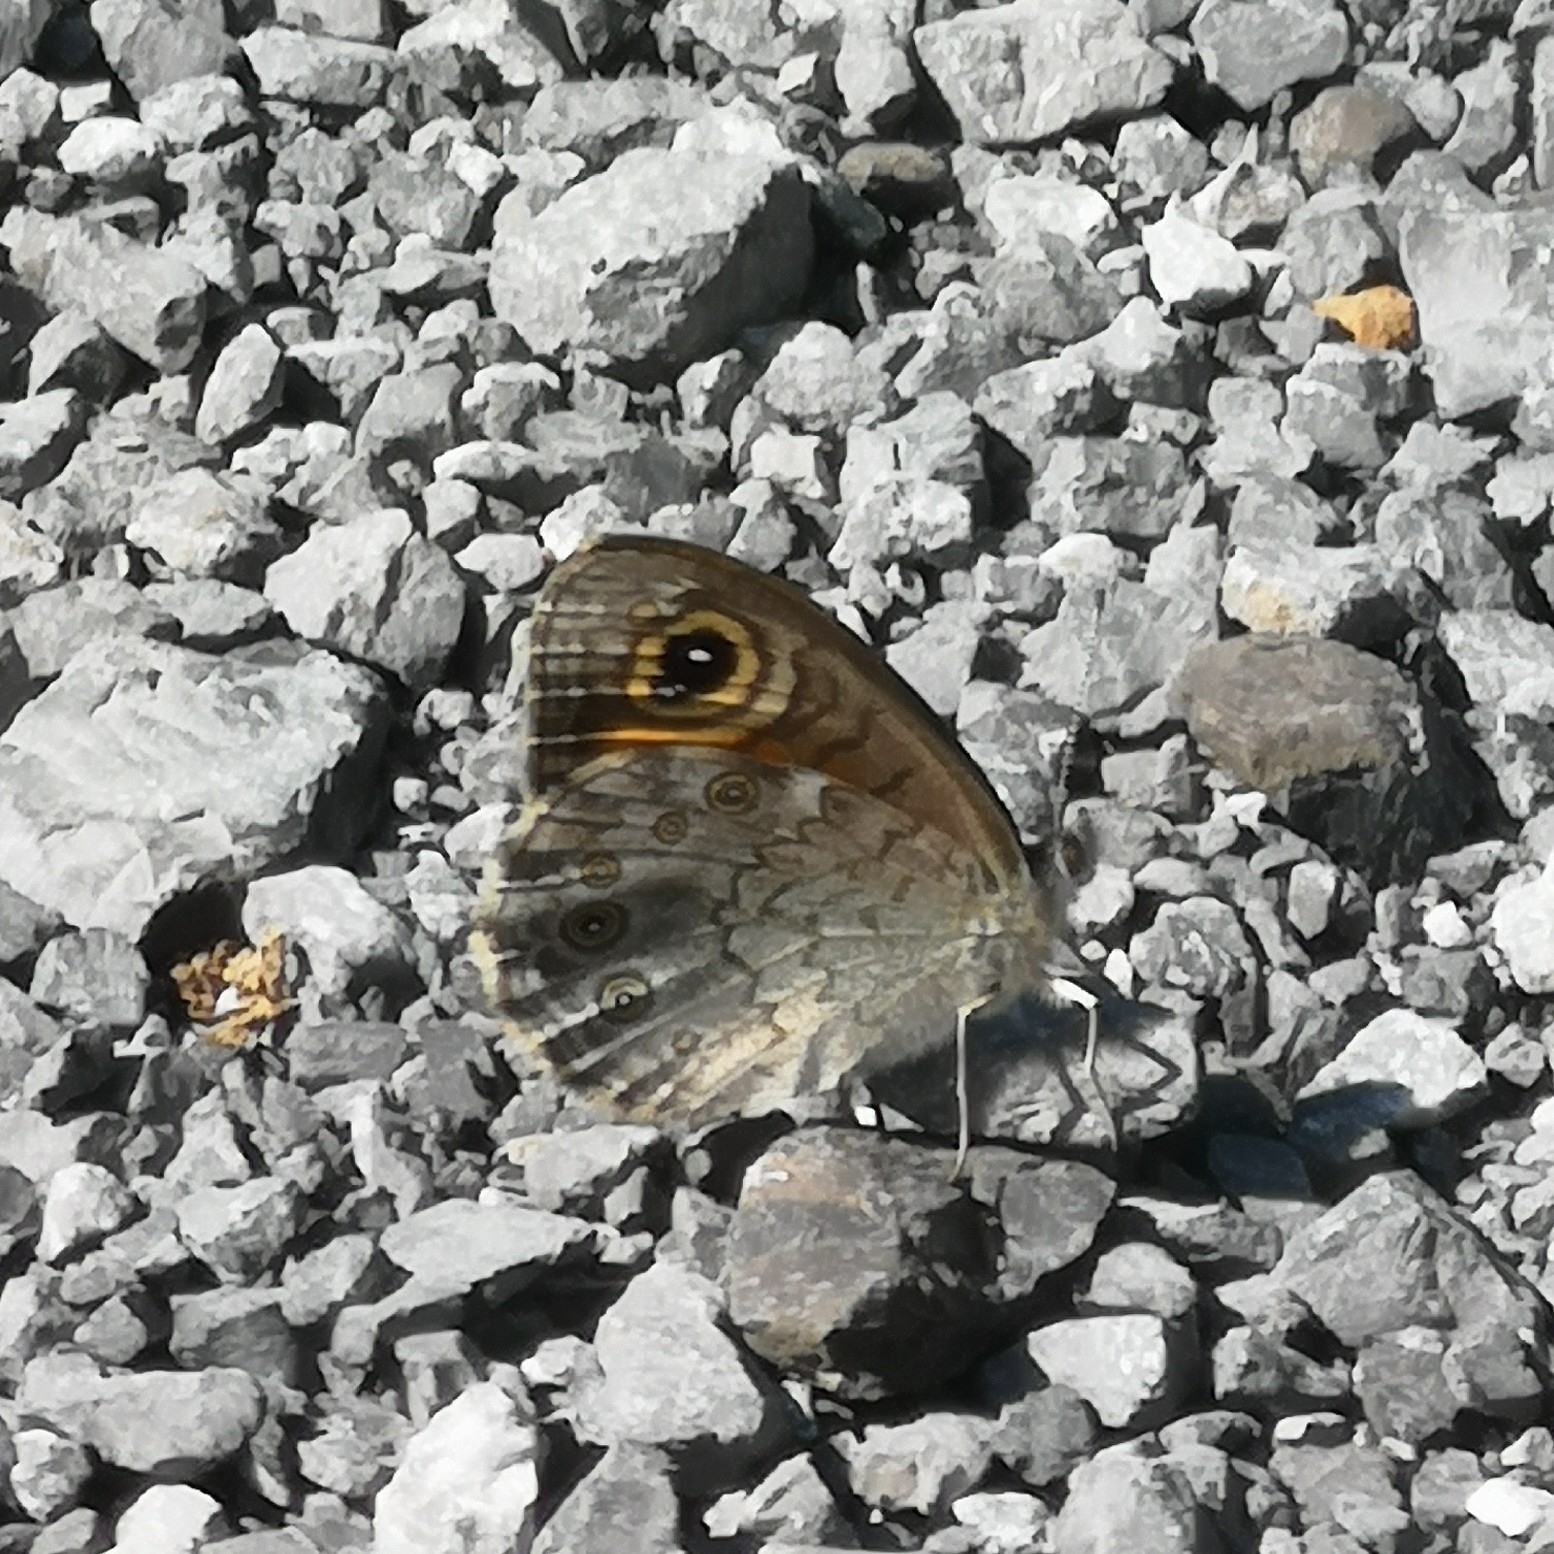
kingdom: Animalia
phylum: Arthropoda
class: Insecta
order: Lepidoptera
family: Nymphalidae
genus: Pararge
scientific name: Pararge Lasiommata maera
